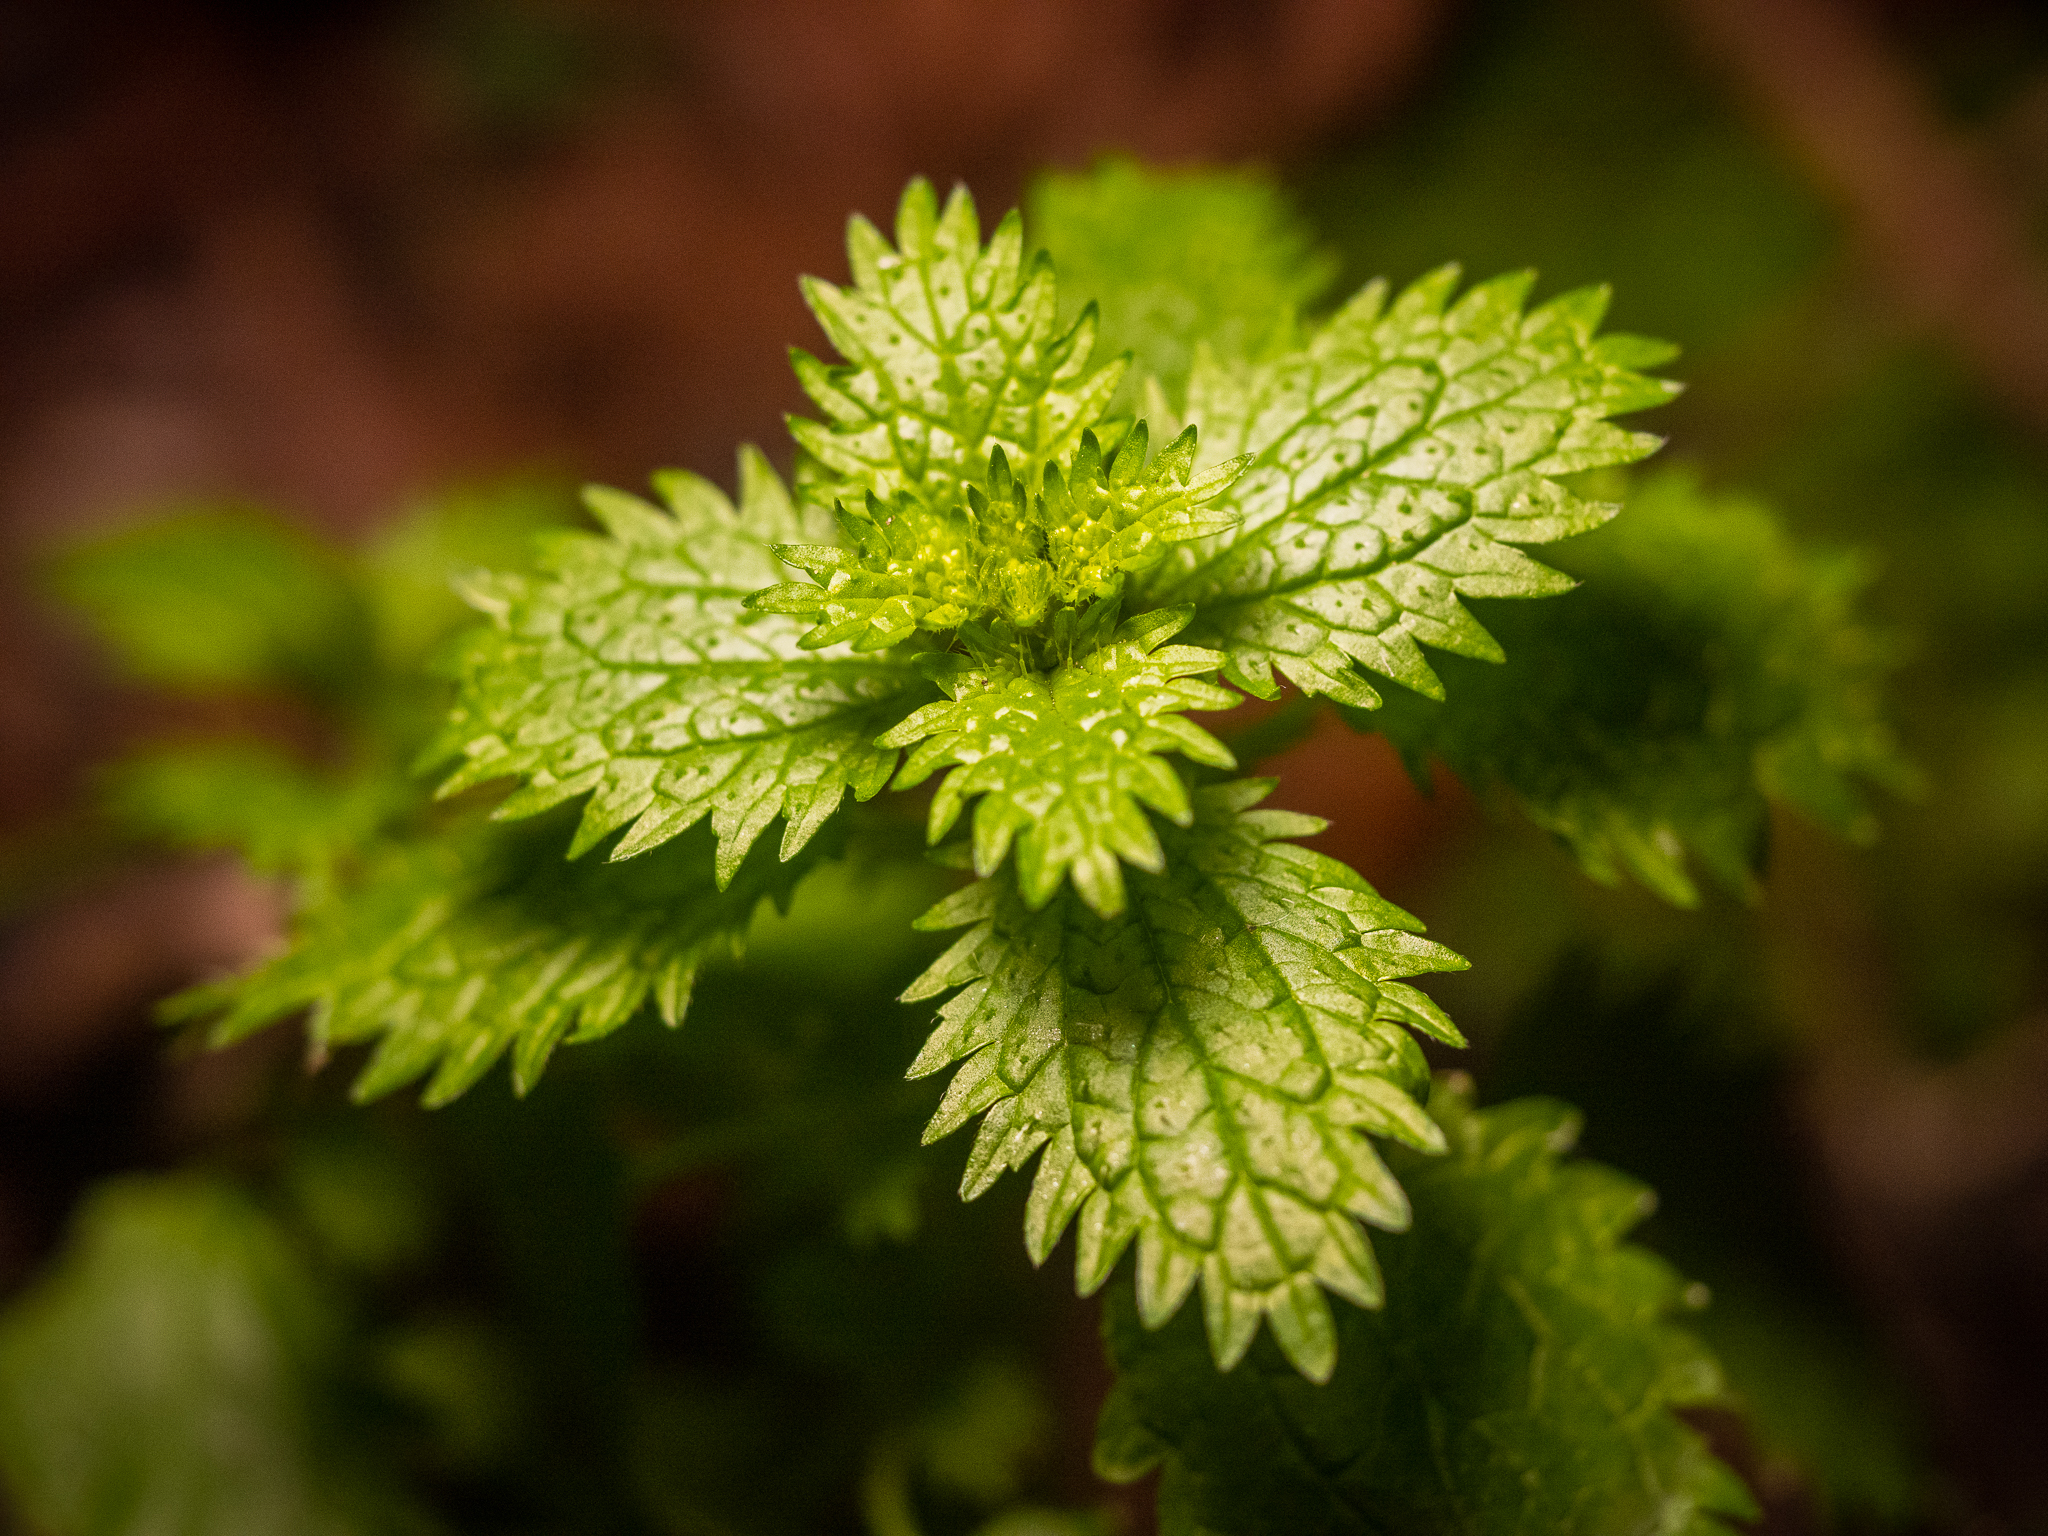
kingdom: Plantae
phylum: Tracheophyta
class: Magnoliopsida
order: Rosales
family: Urticaceae
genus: Urtica
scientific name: Urtica urens
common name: Dwarf nettle
